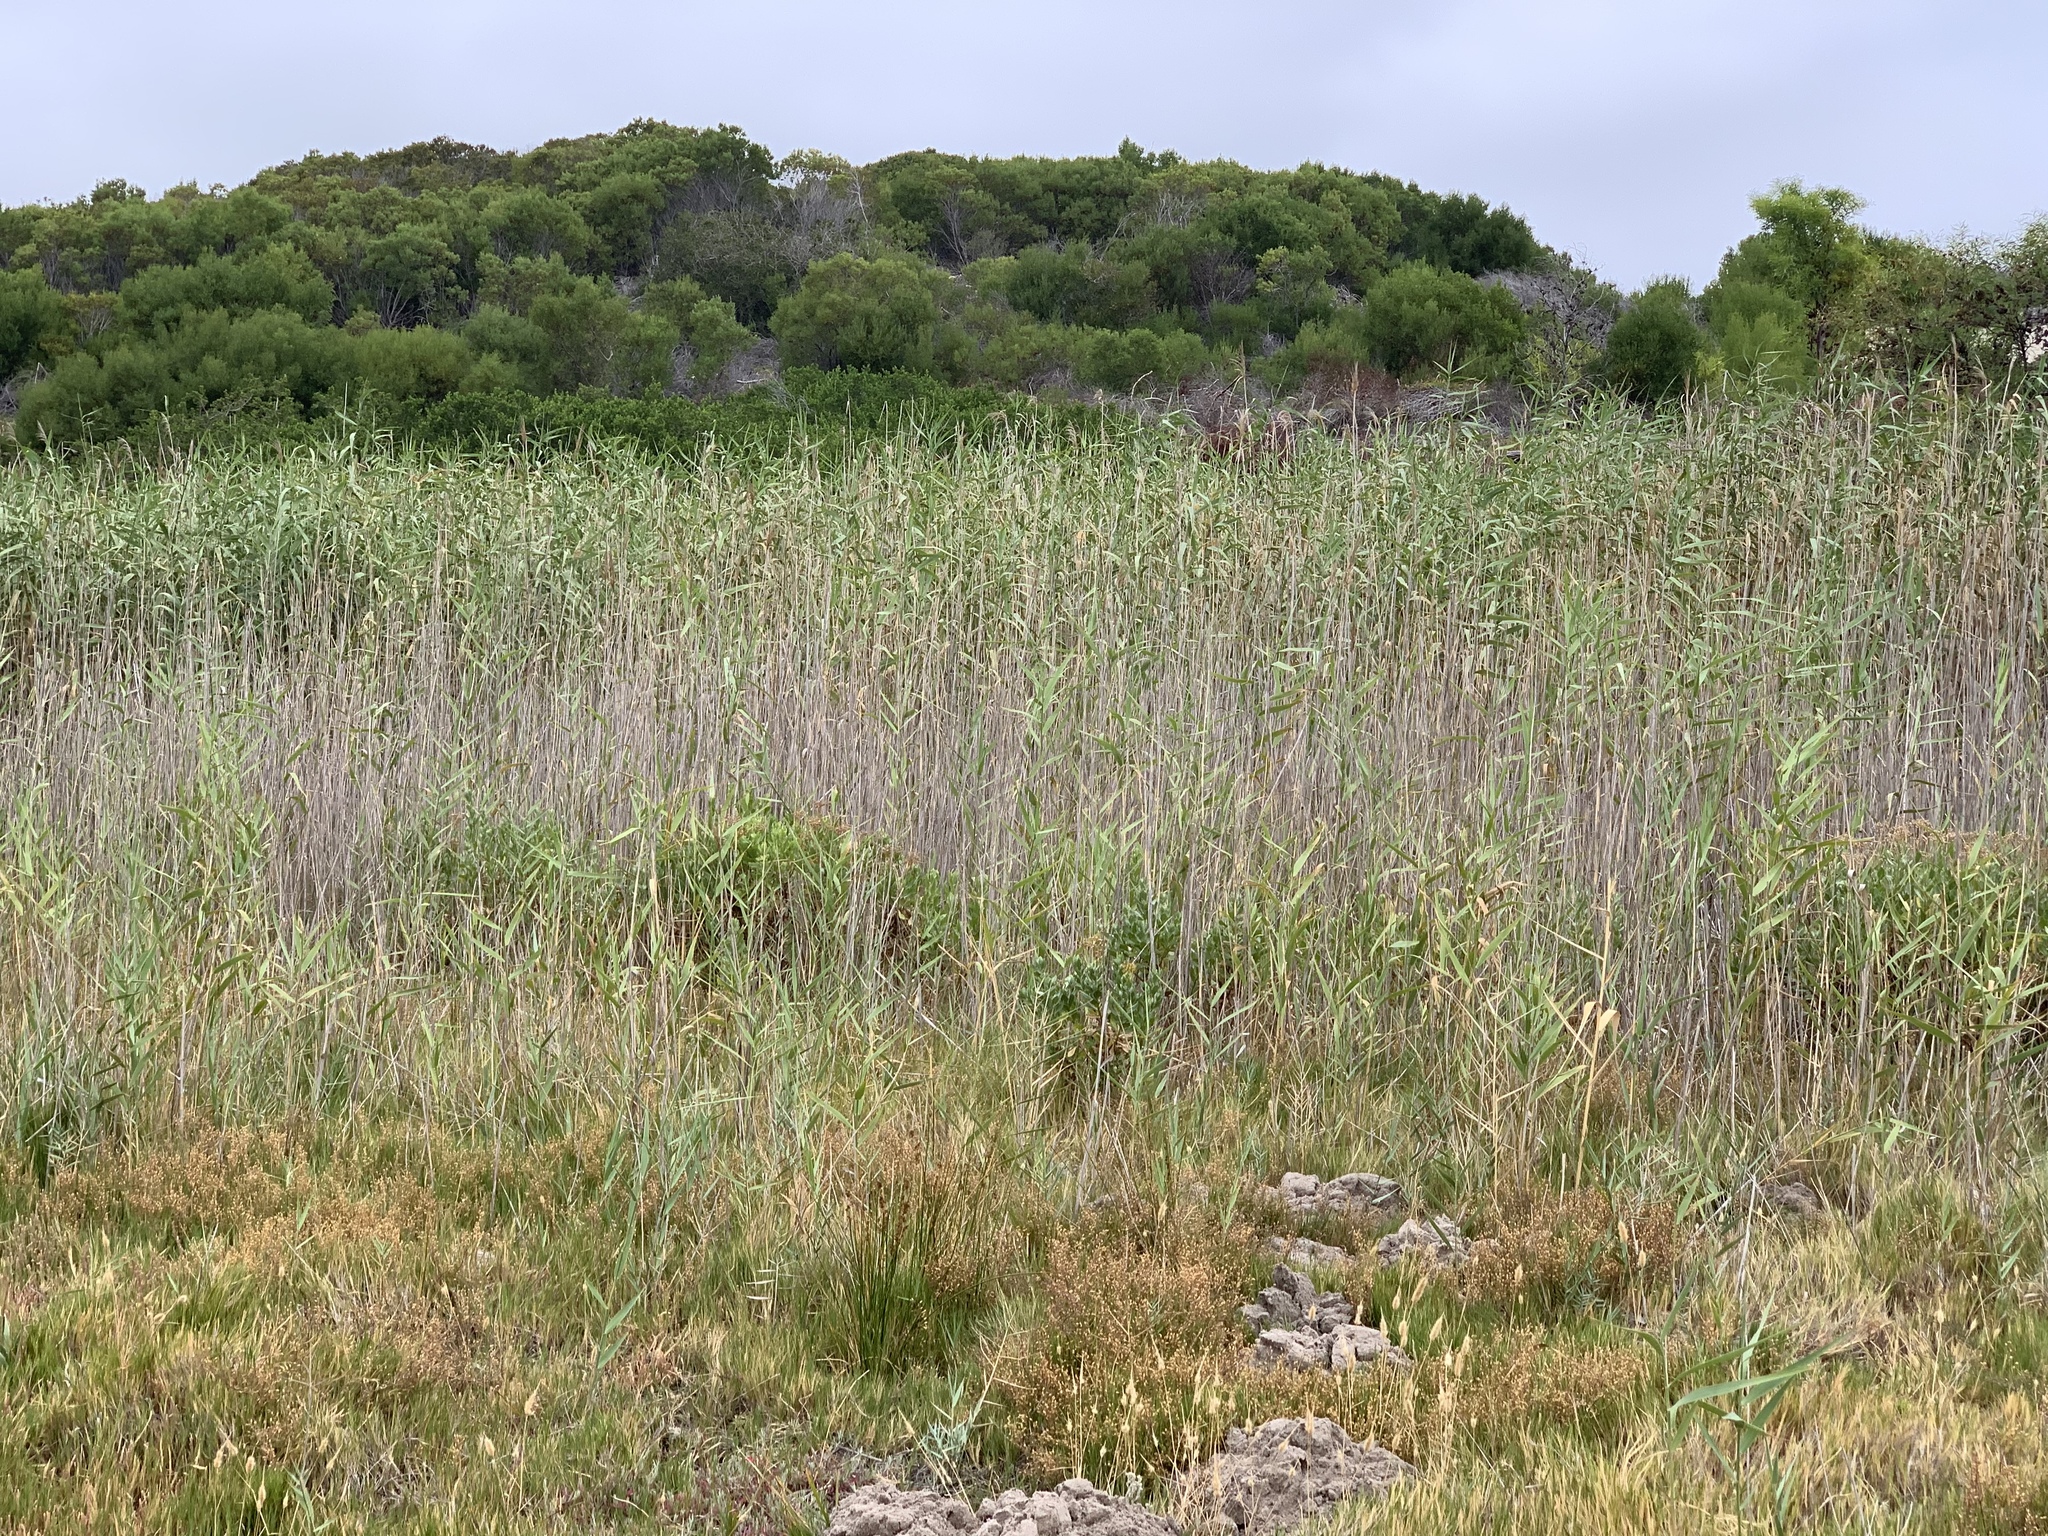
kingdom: Plantae
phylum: Tracheophyta
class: Liliopsida
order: Poales
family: Poaceae
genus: Phragmites
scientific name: Phragmites australis
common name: Common reed
